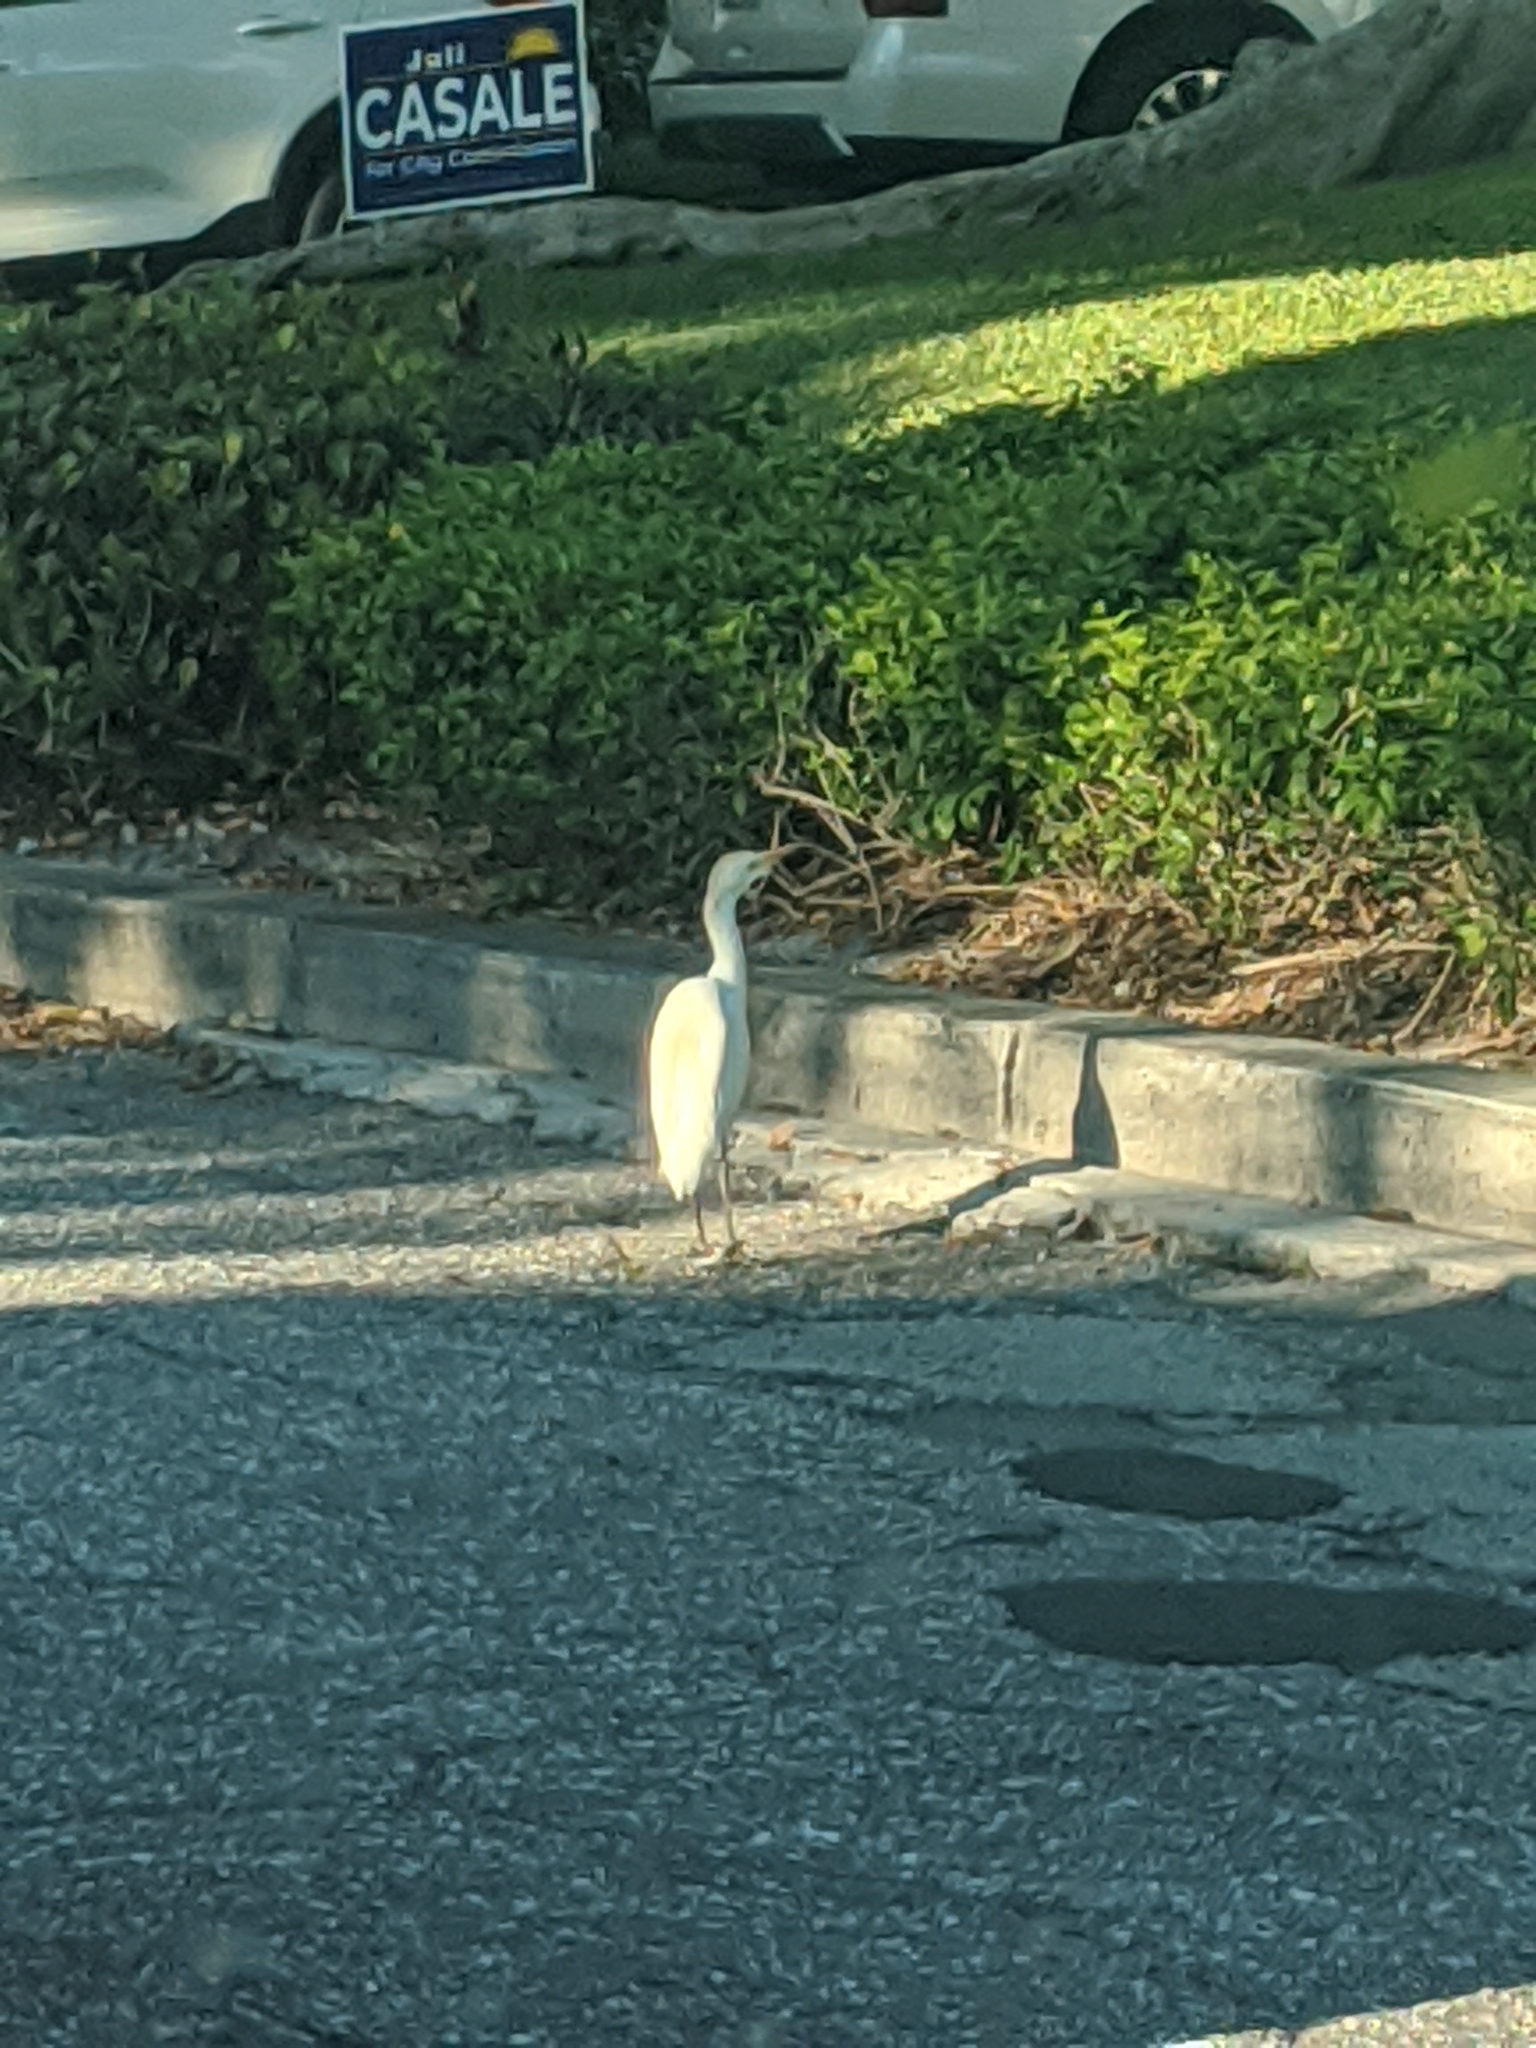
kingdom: Animalia
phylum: Chordata
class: Aves
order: Pelecaniformes
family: Ardeidae
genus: Bubulcus
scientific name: Bubulcus ibis
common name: Cattle egret
